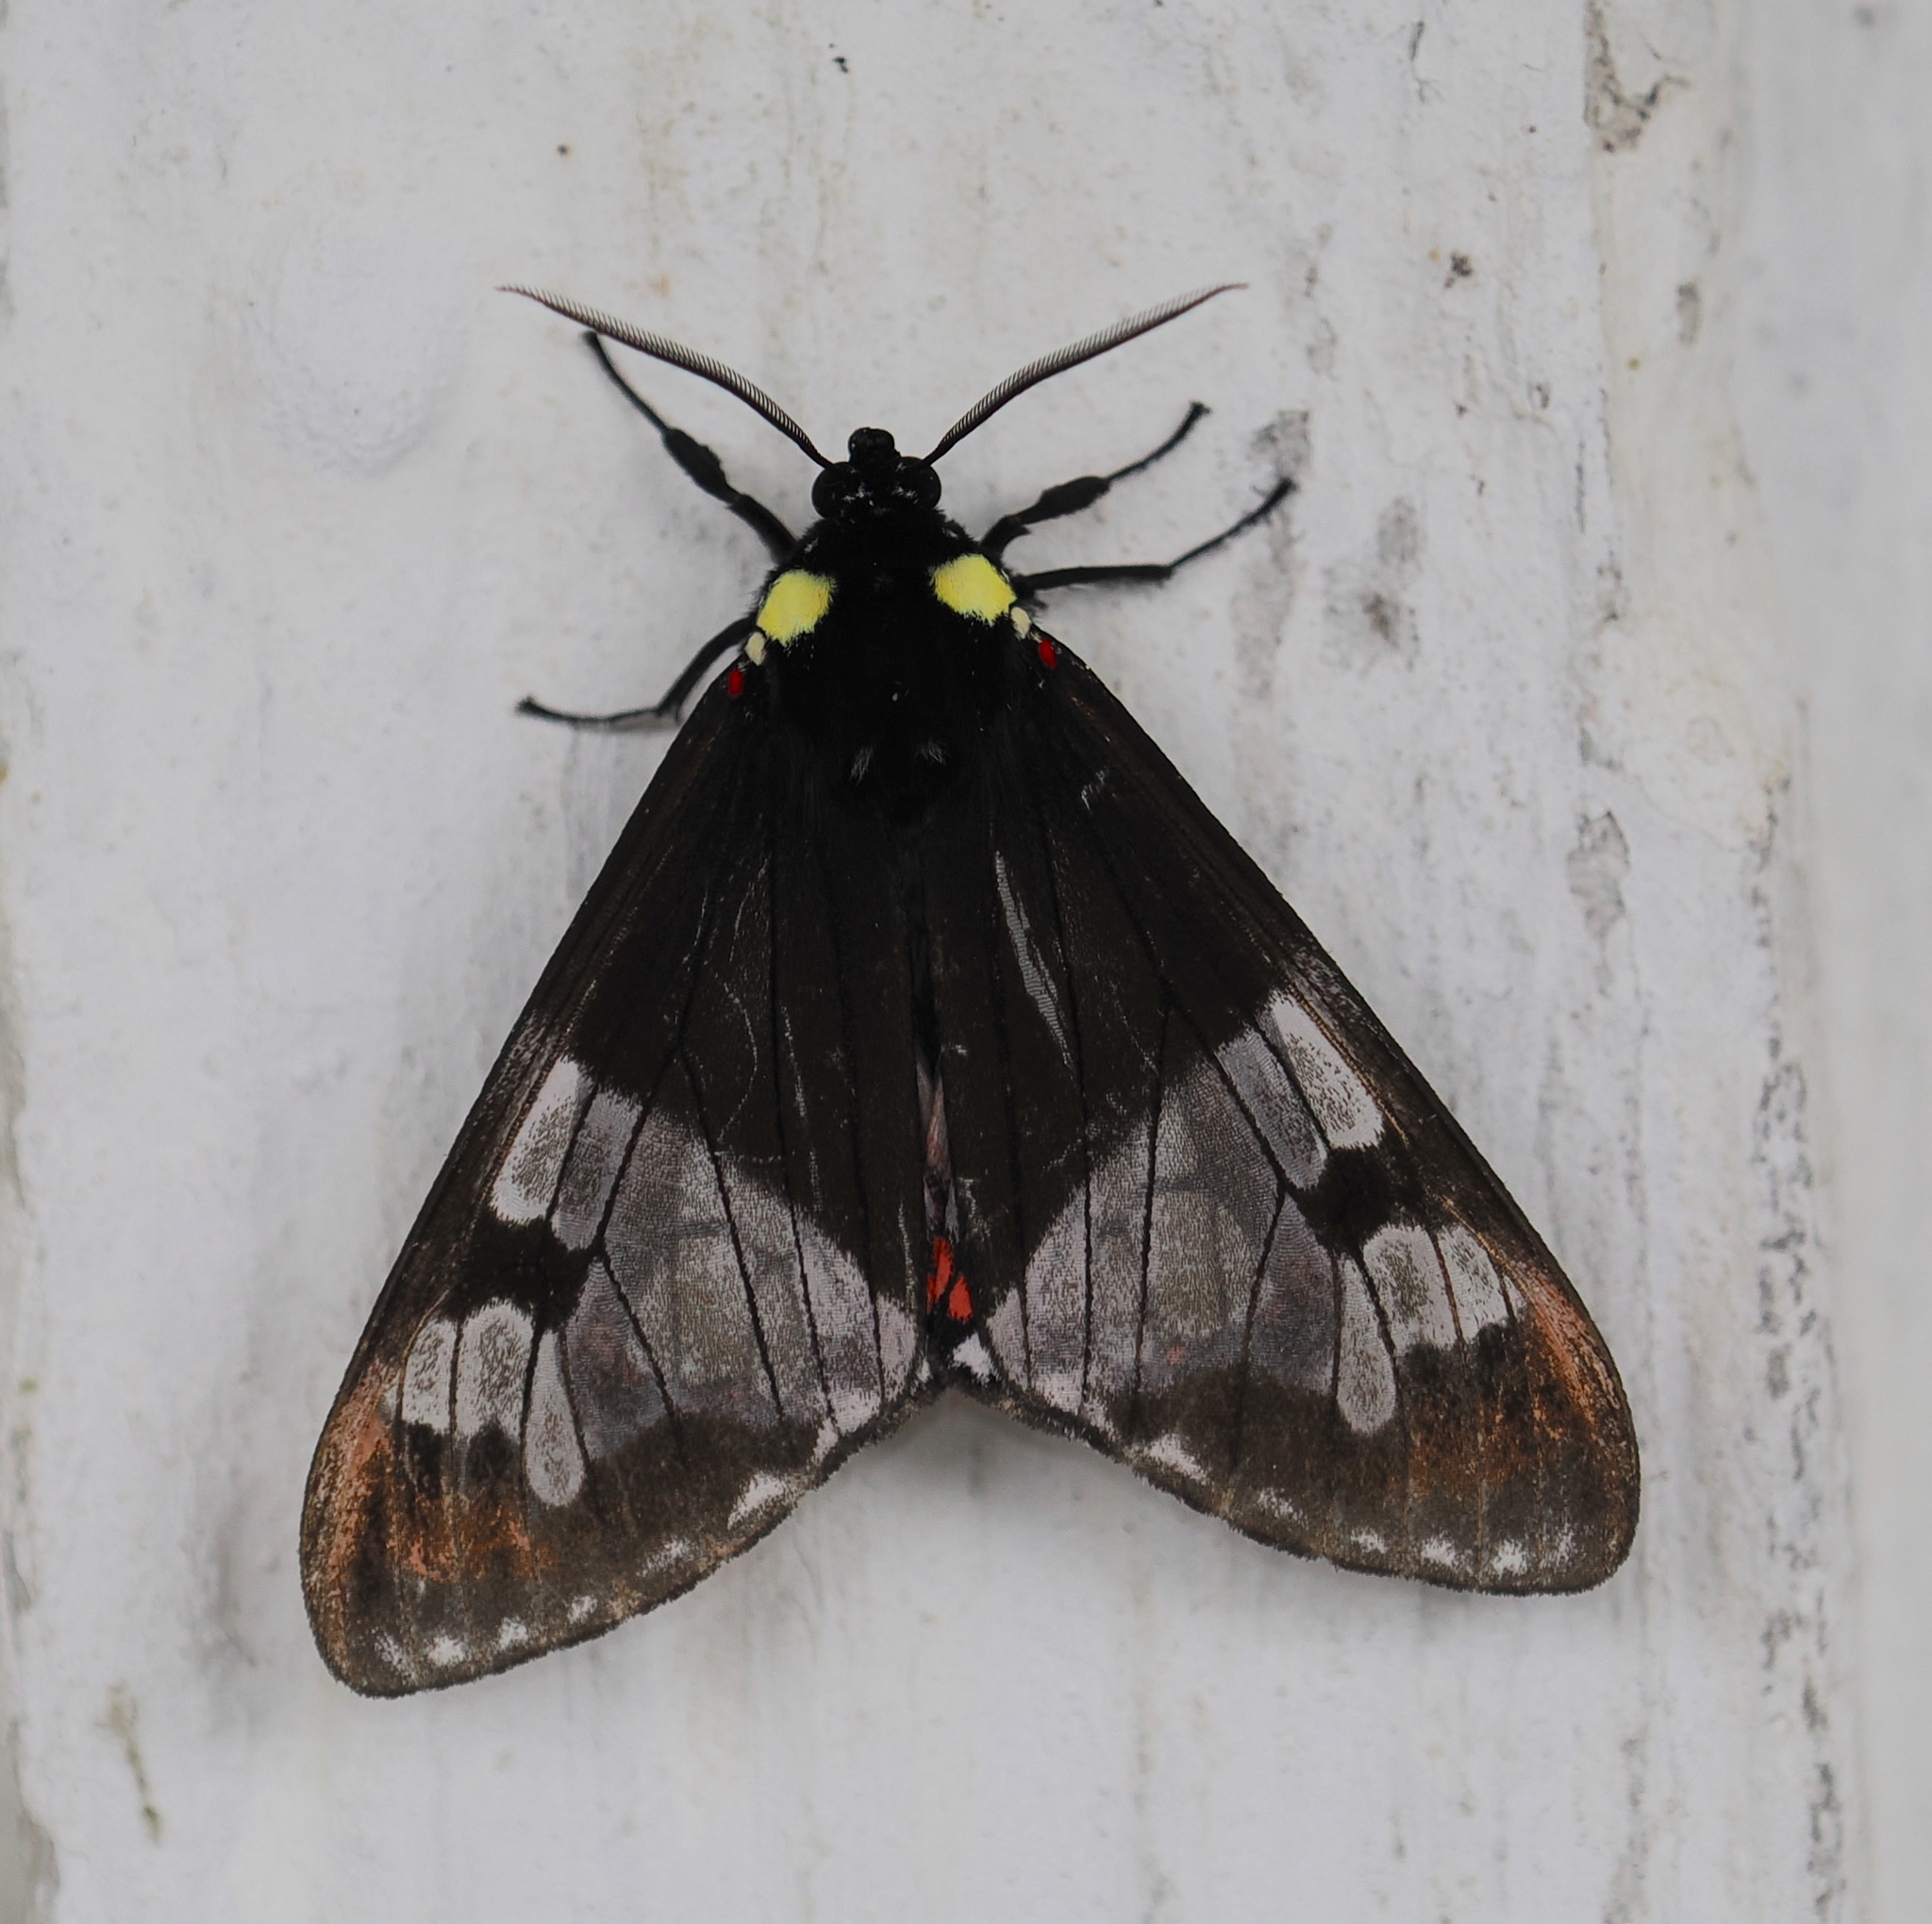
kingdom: Animalia
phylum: Arthropoda
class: Insecta
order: Lepidoptera
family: Erebidae
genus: Dysschema
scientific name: Dysschema marginalis
